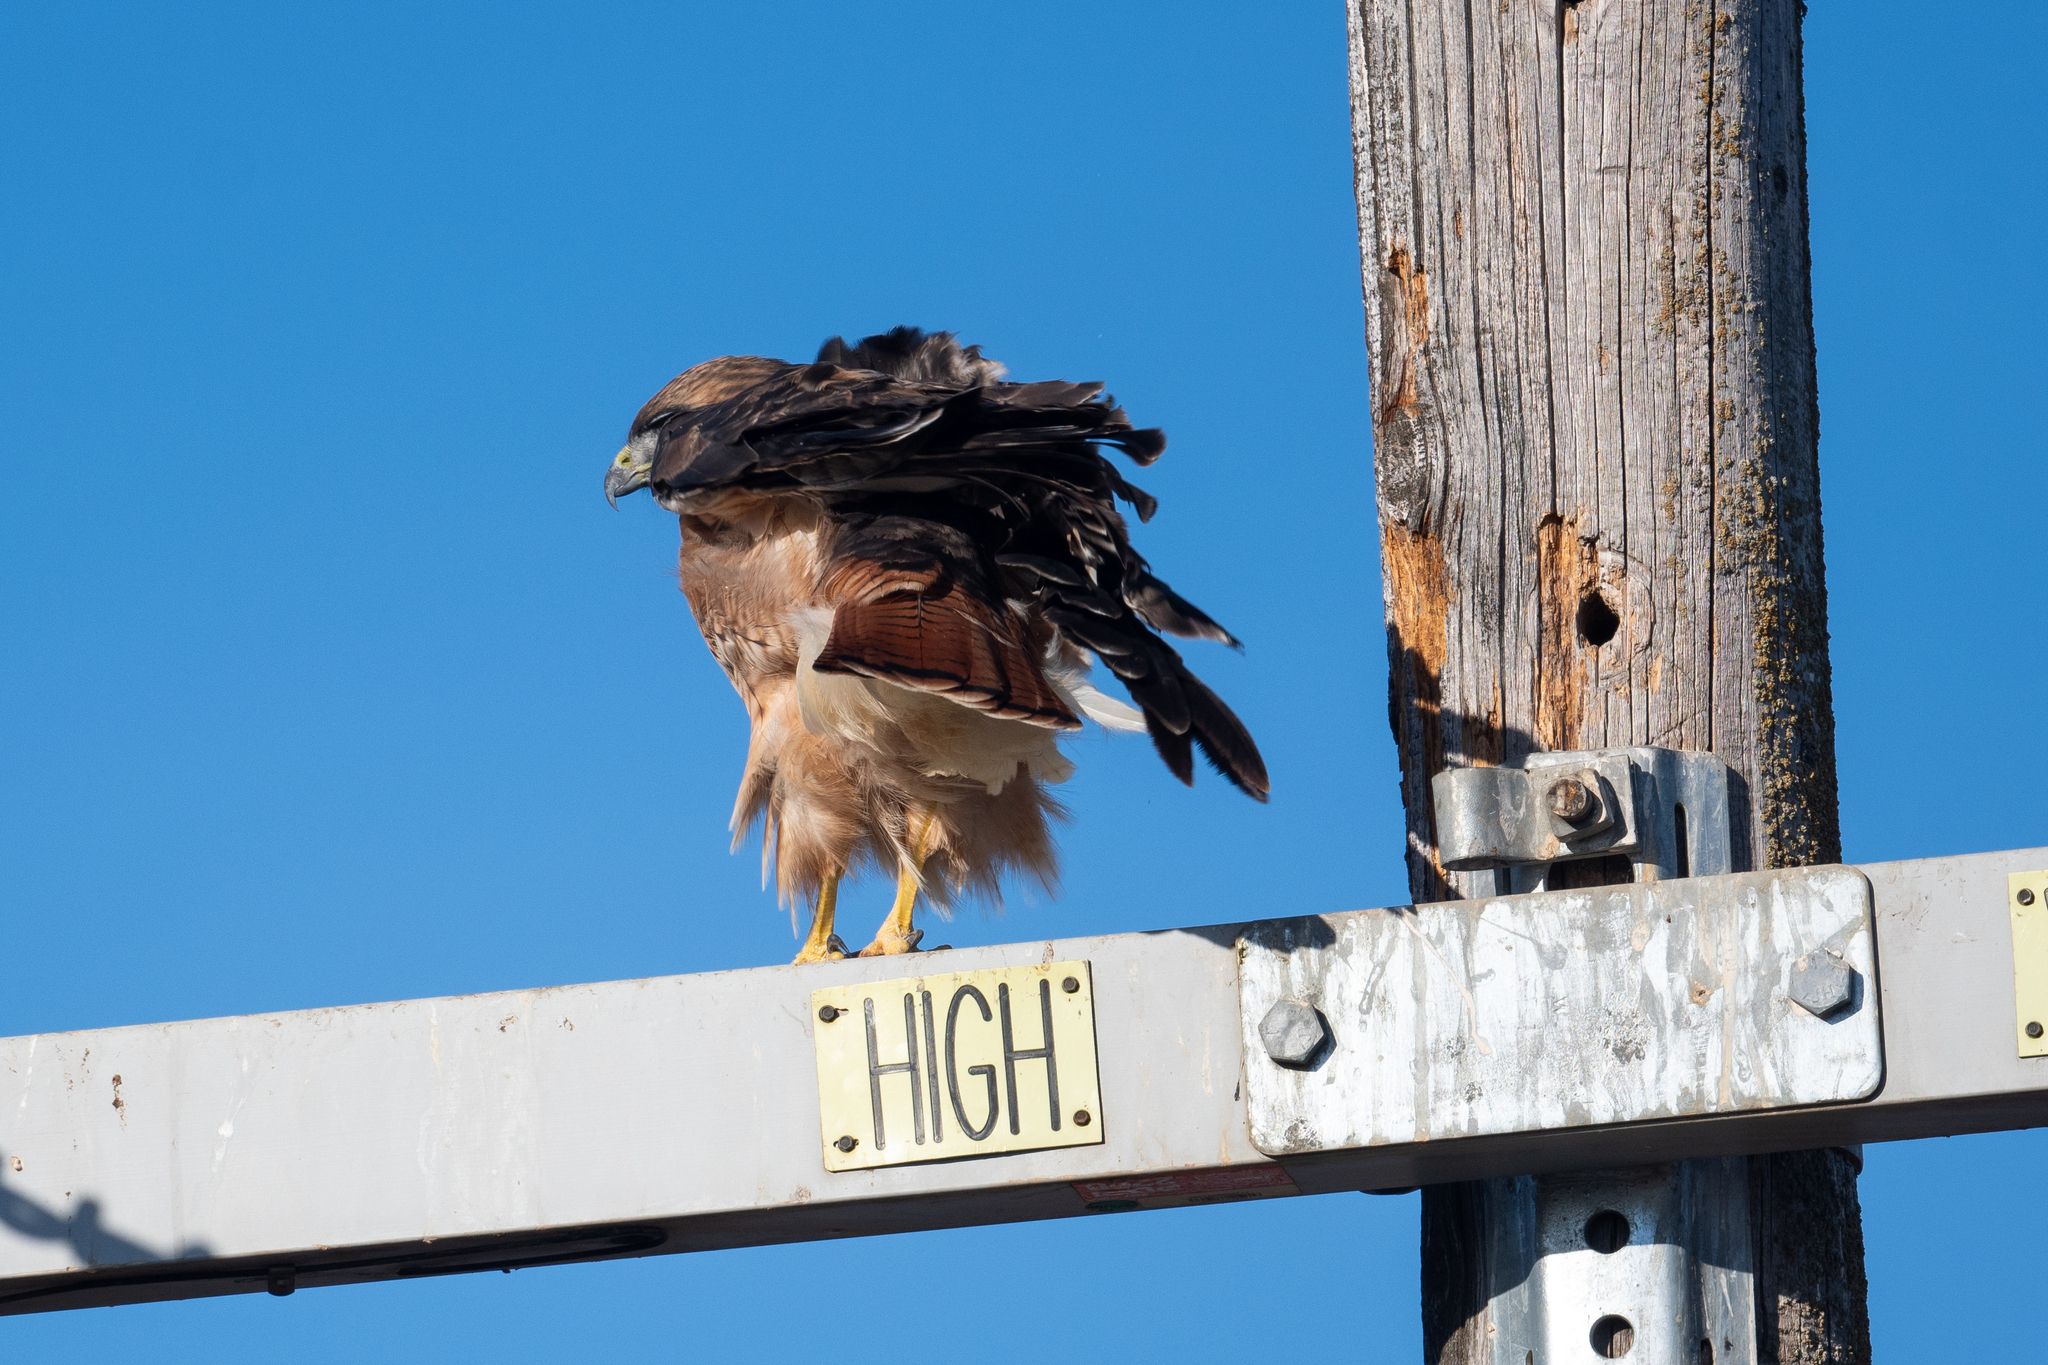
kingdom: Animalia
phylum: Chordata
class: Aves
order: Accipitriformes
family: Accipitridae
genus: Buteo
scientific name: Buteo jamaicensis
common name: Red-tailed hawk
